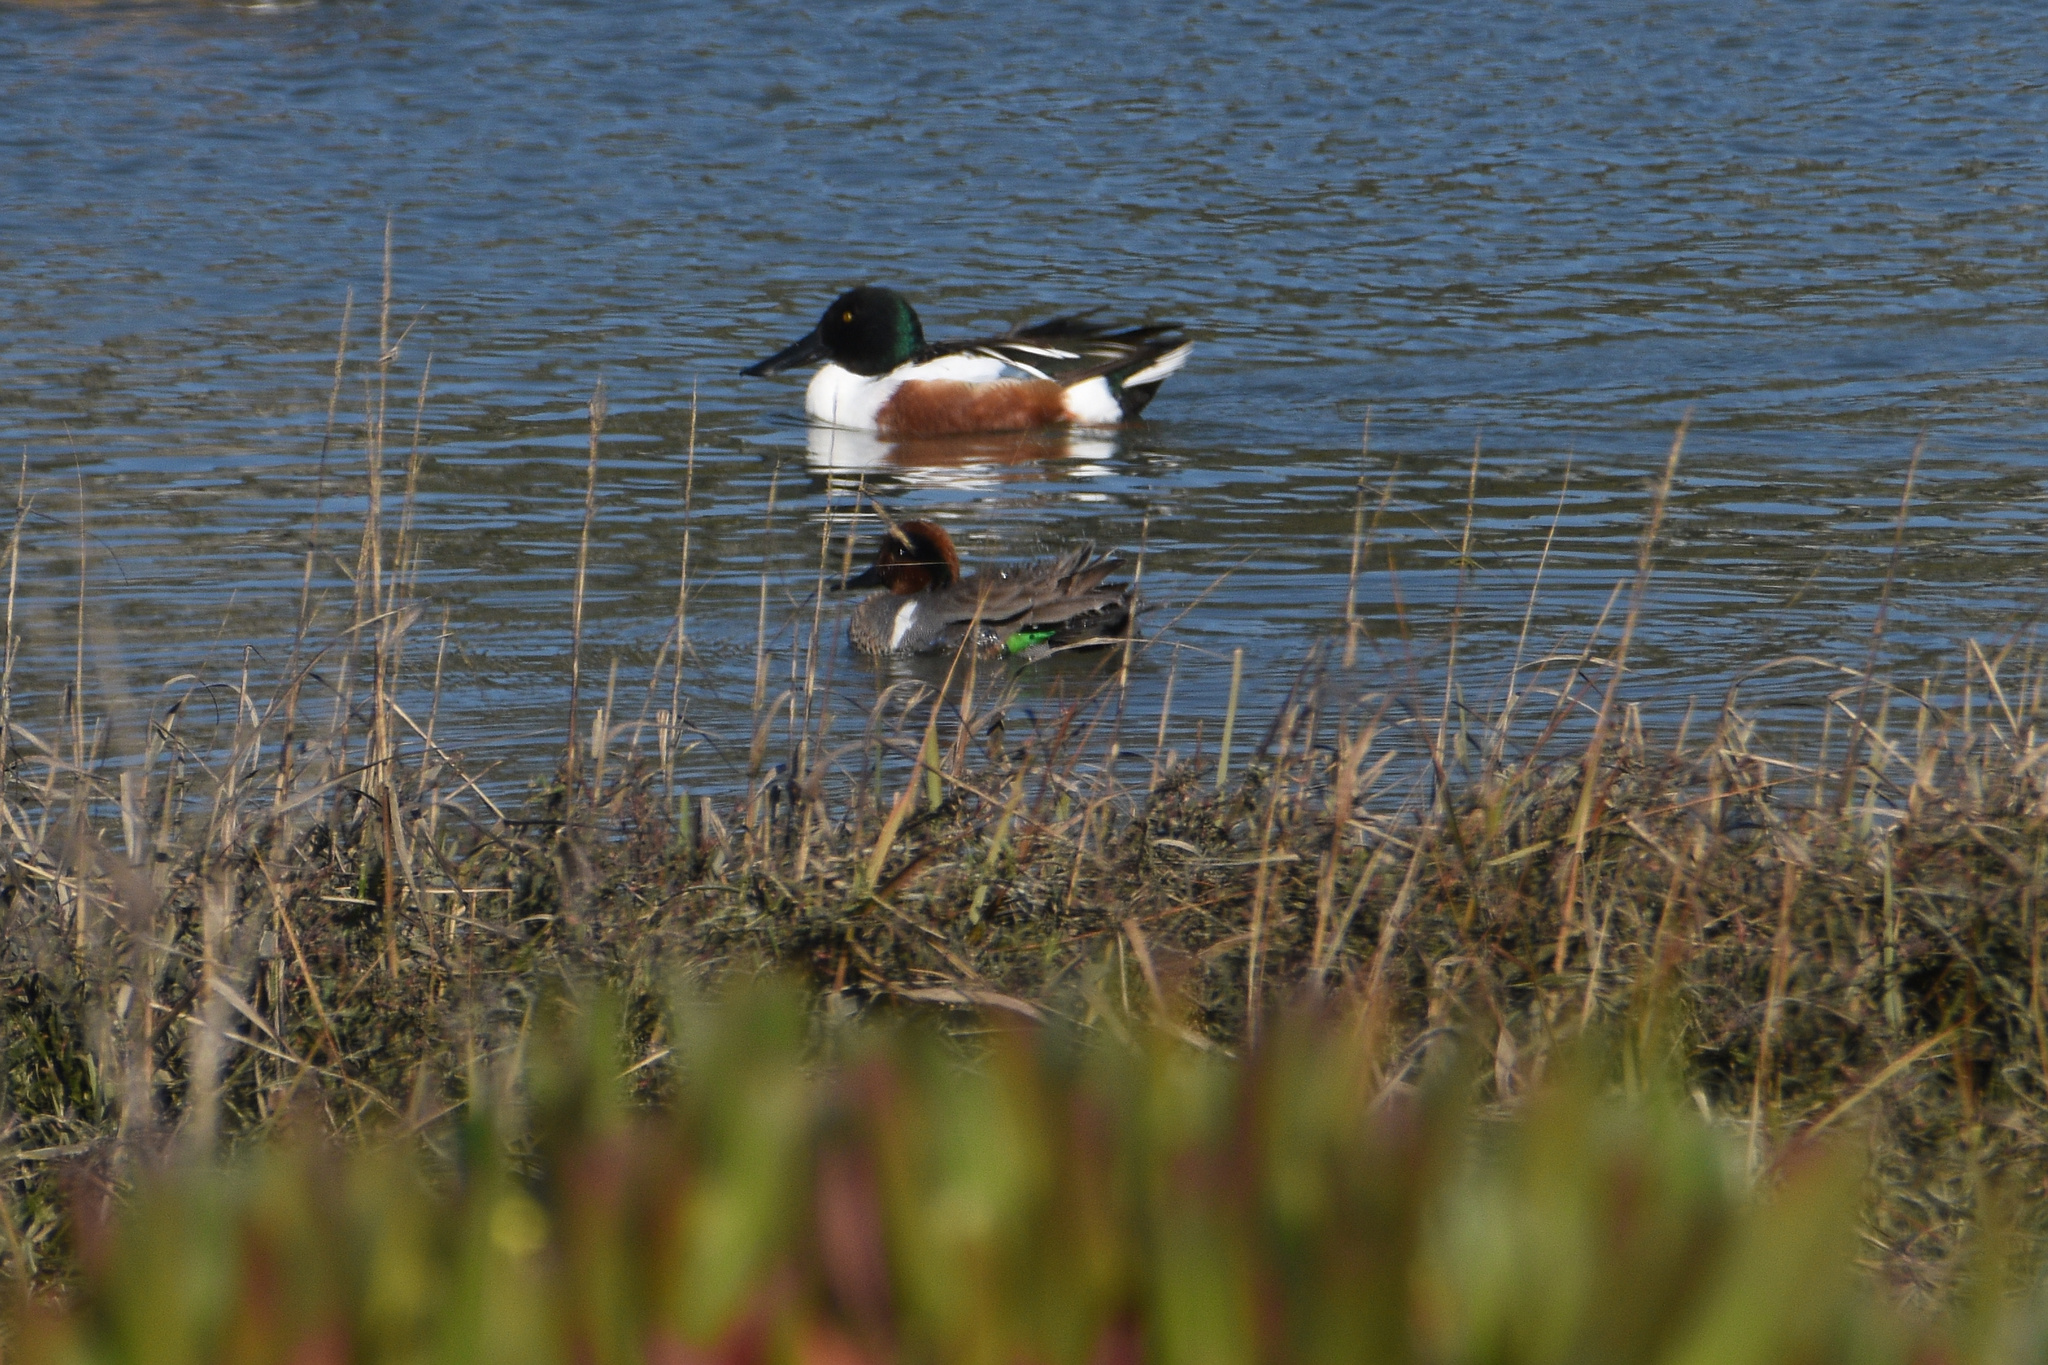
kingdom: Animalia
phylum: Chordata
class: Aves
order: Anseriformes
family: Anatidae
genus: Spatula
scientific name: Spatula clypeata
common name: Northern shoveler
